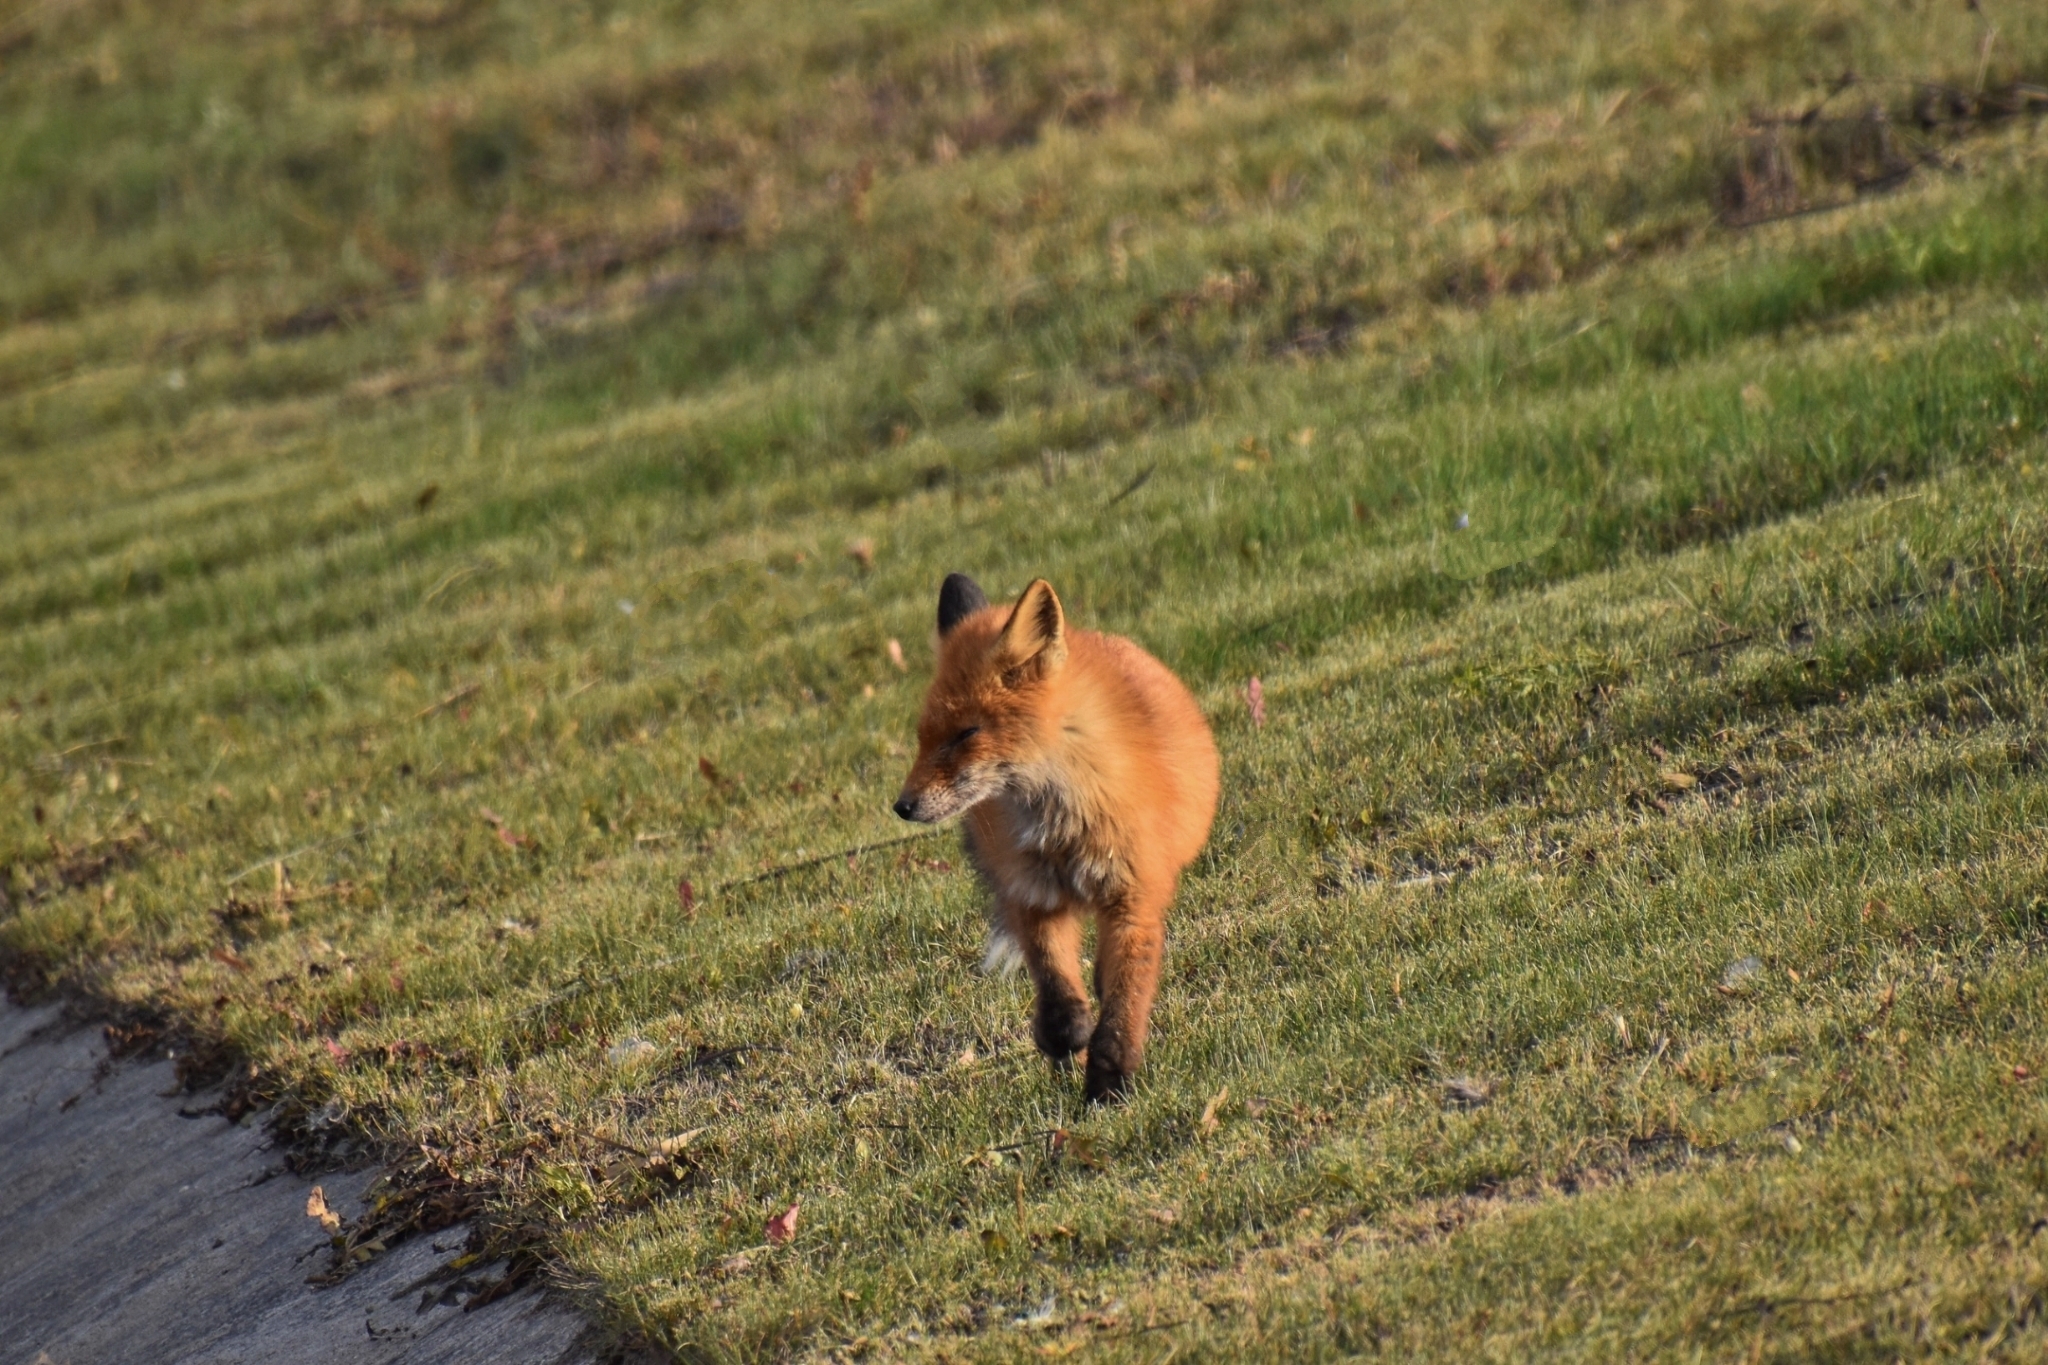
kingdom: Animalia
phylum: Chordata
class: Mammalia
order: Carnivora
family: Canidae
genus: Vulpes
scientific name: Vulpes vulpes
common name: Red fox
